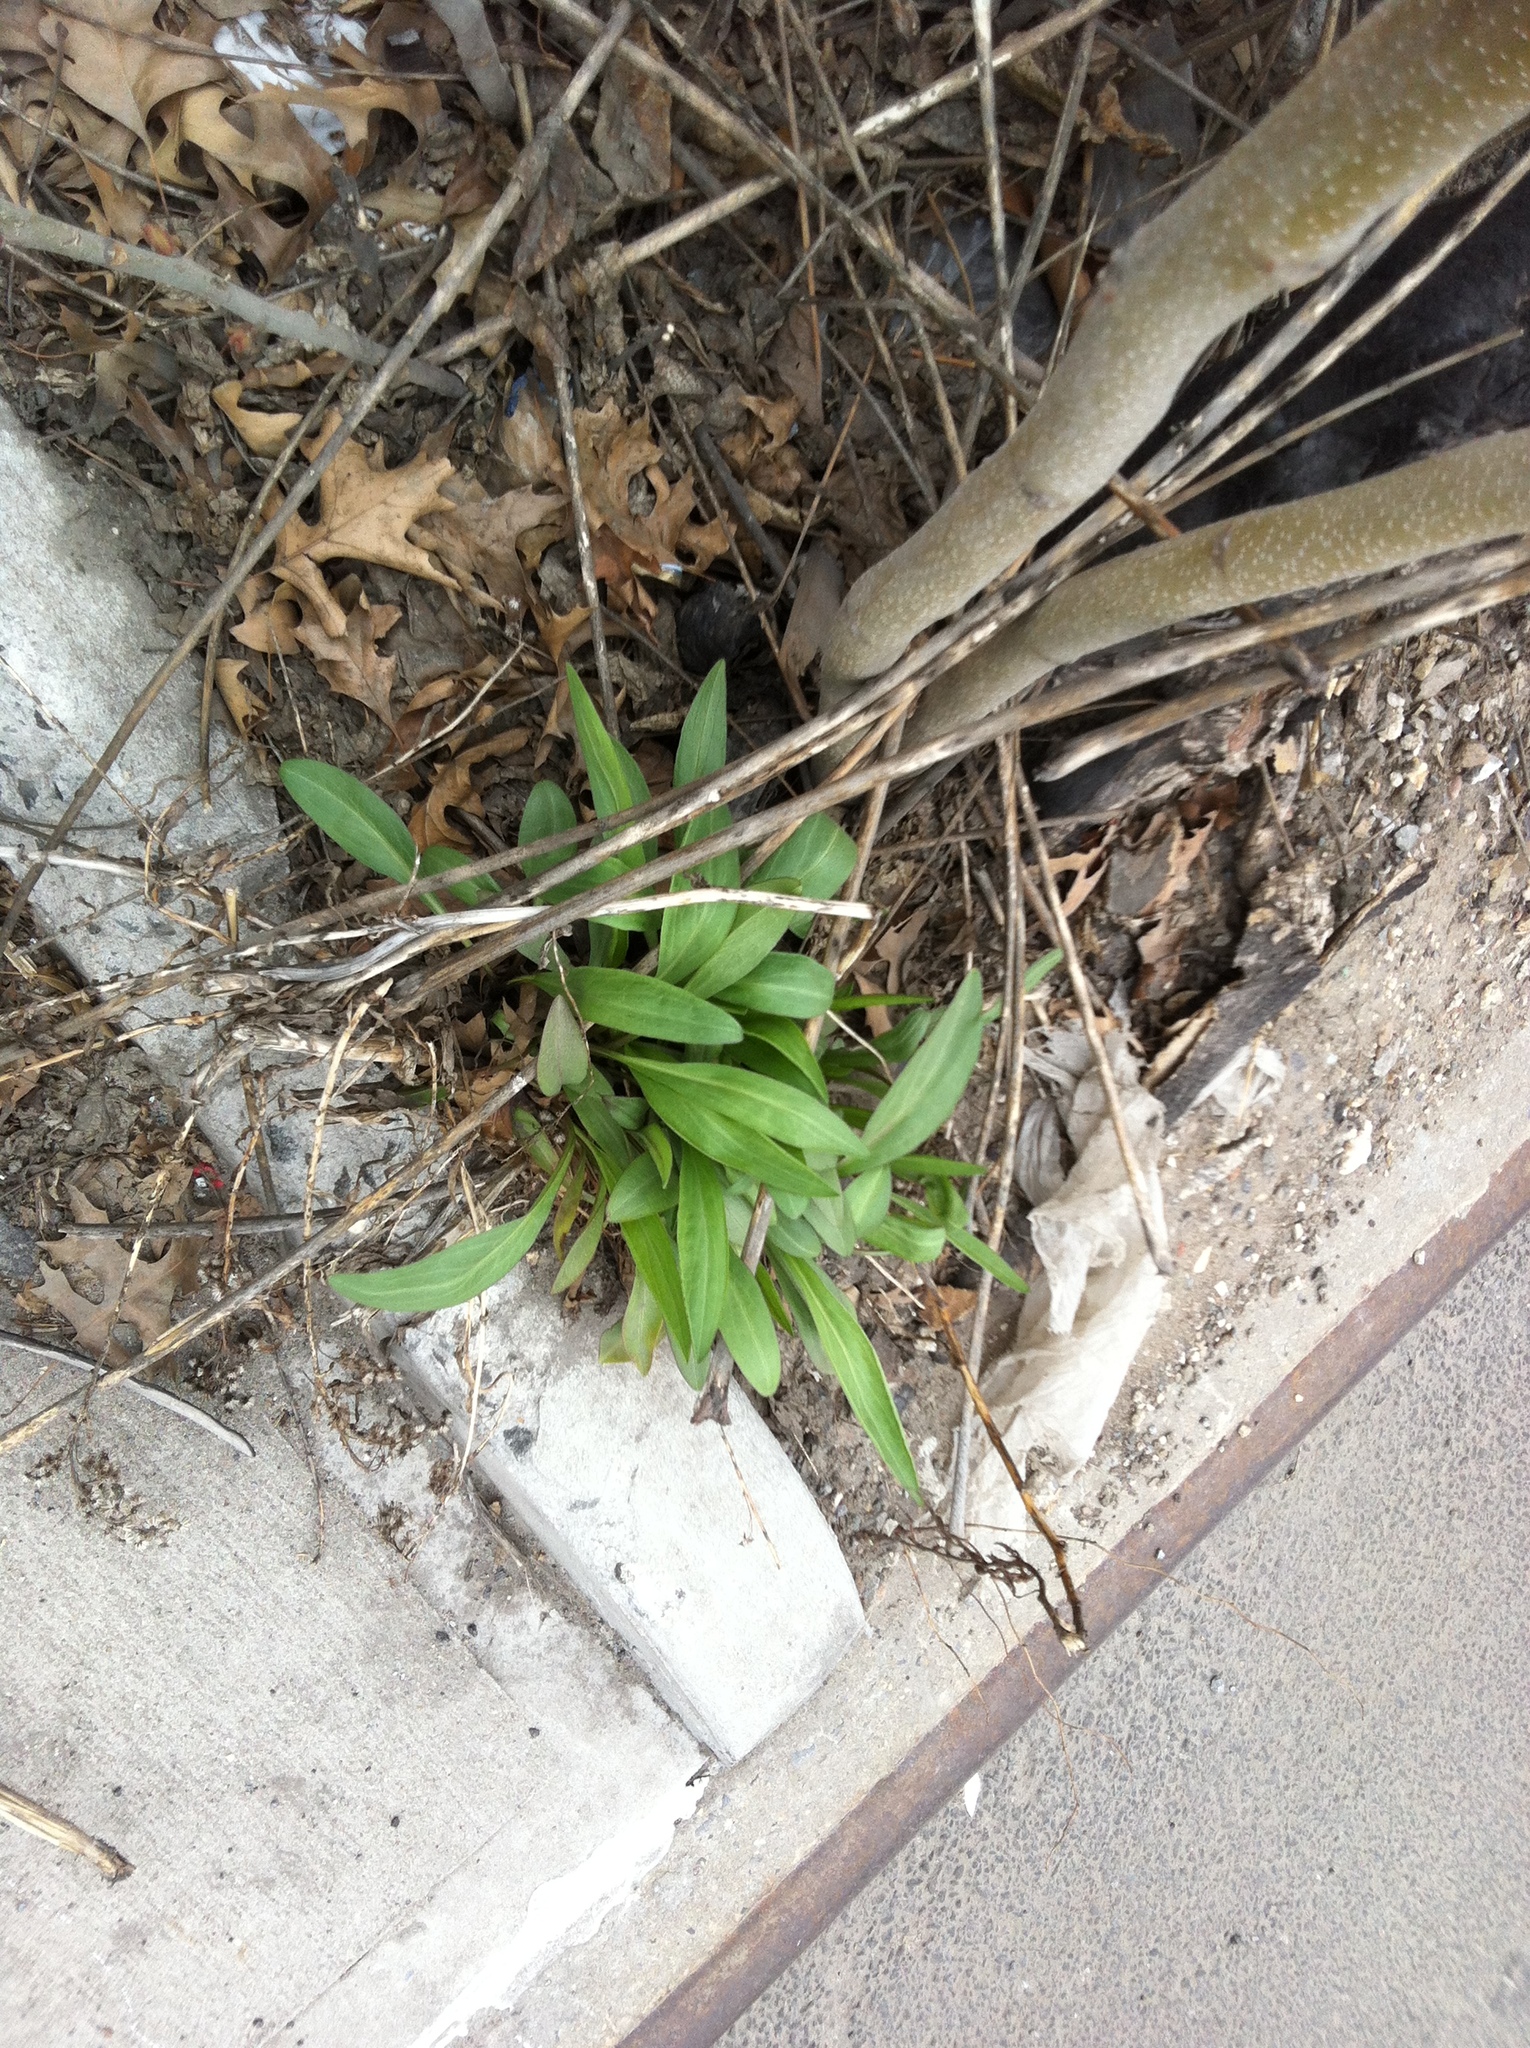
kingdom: Plantae
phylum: Tracheophyta
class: Magnoliopsida
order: Asterales
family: Asteraceae
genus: Solidago
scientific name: Solidago sempervirens
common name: Salt-marsh goldenrod
